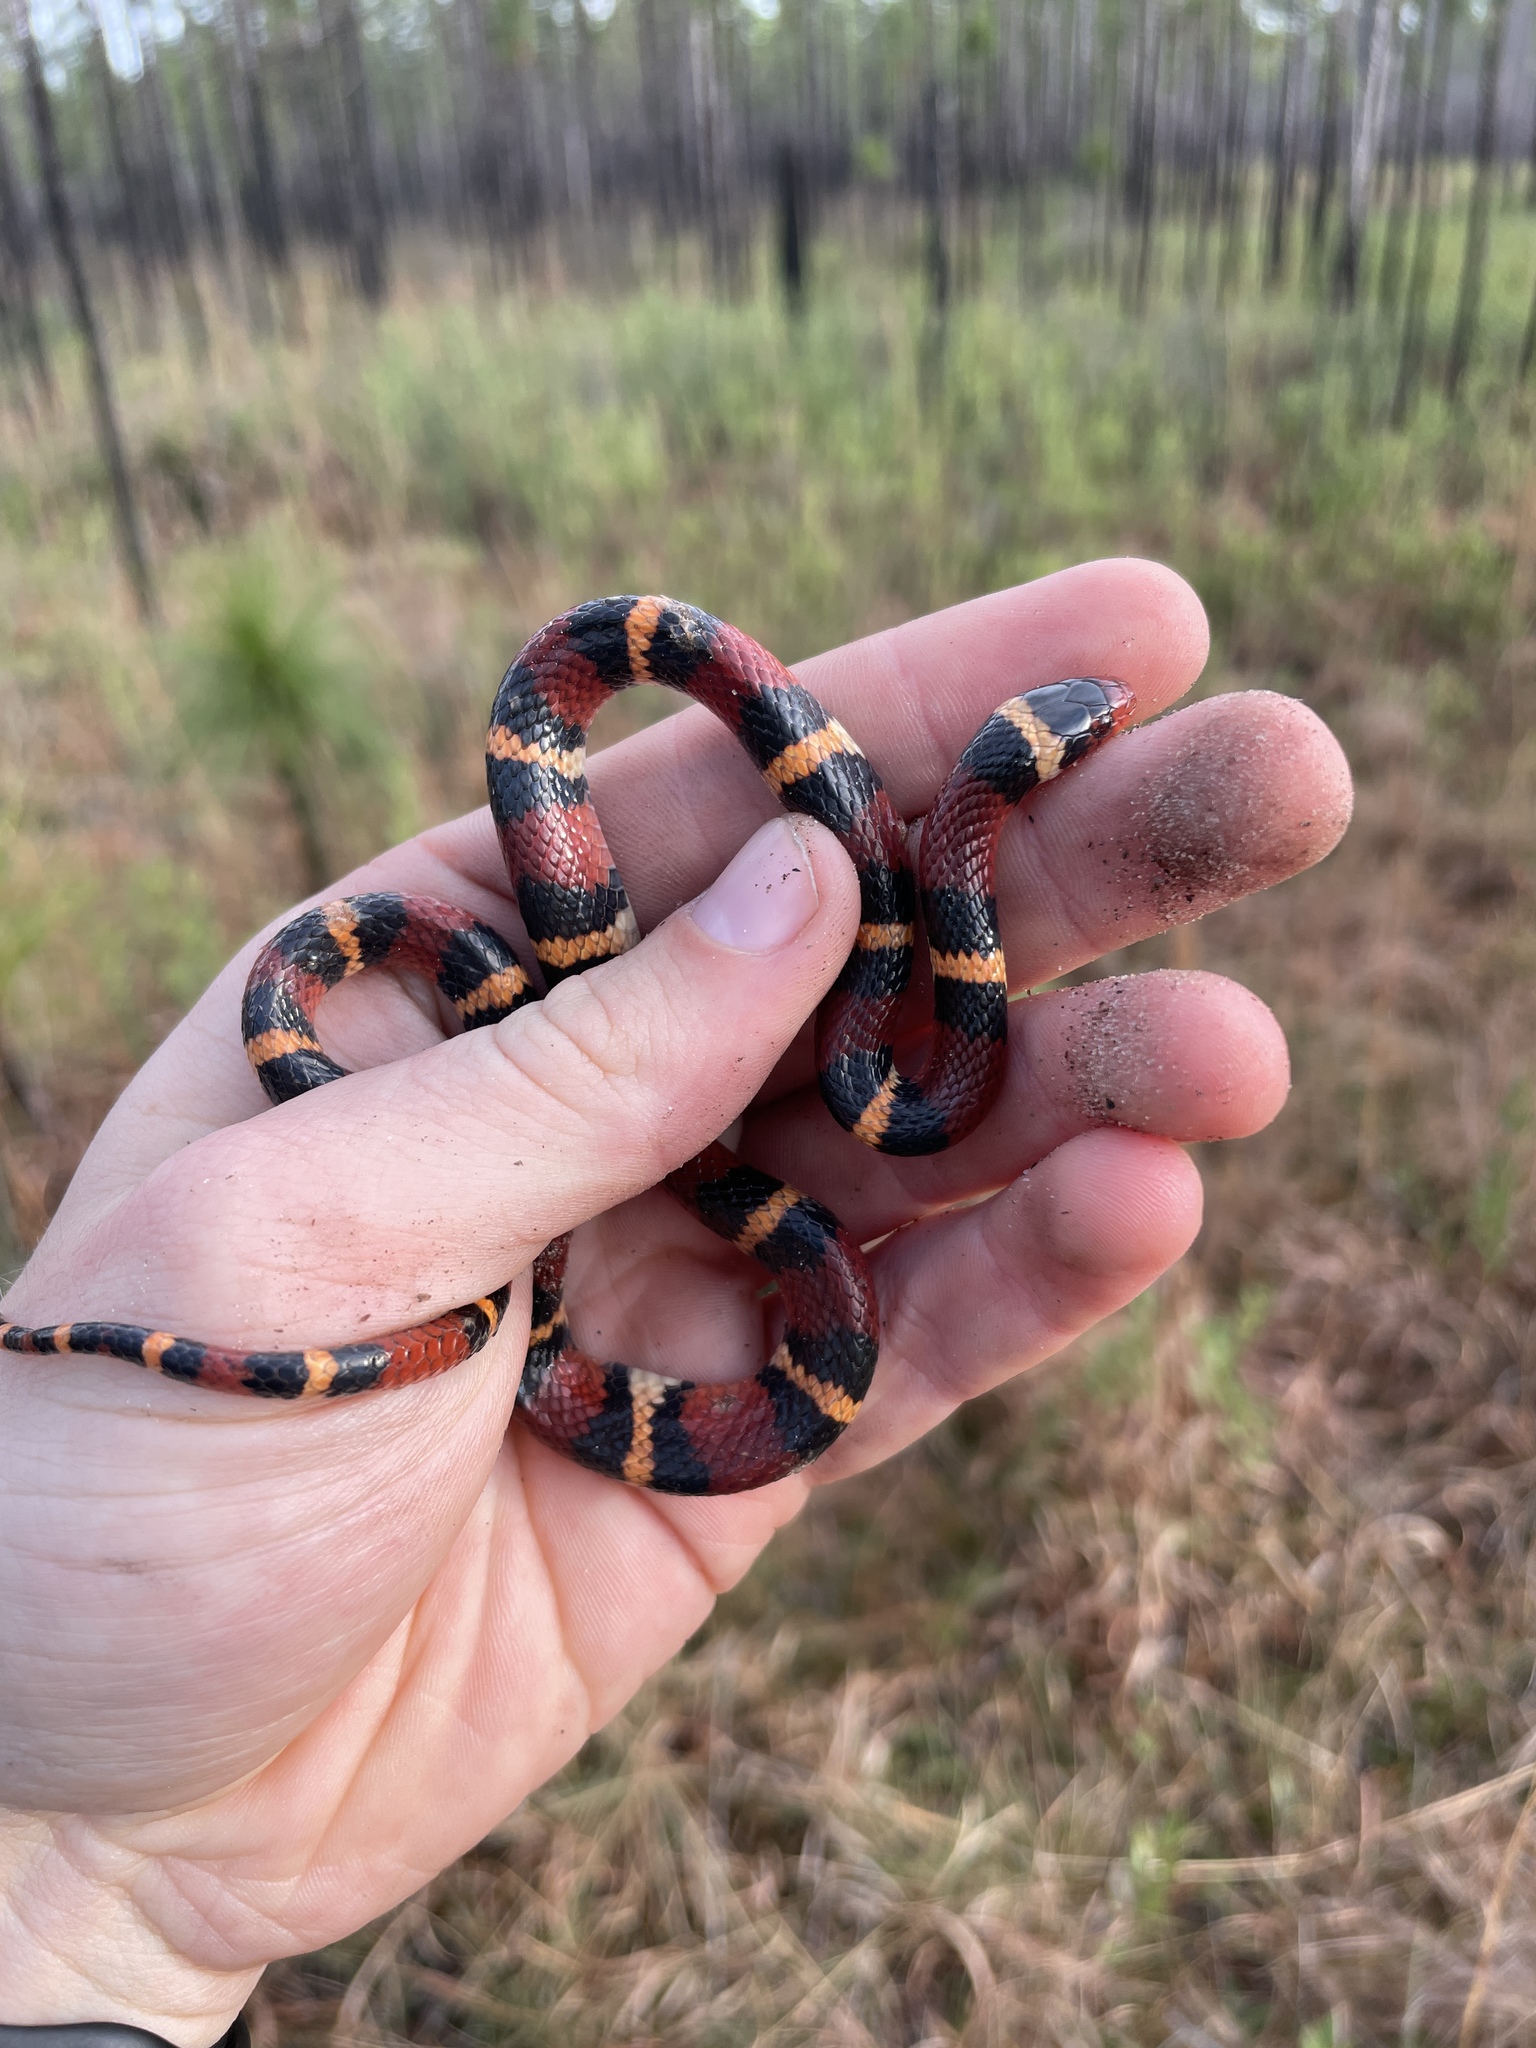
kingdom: Animalia
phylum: Chordata
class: Squamata
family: Colubridae
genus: Lampropeltis
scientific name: Lampropeltis elapsoides
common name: Scarlet kingsnake
